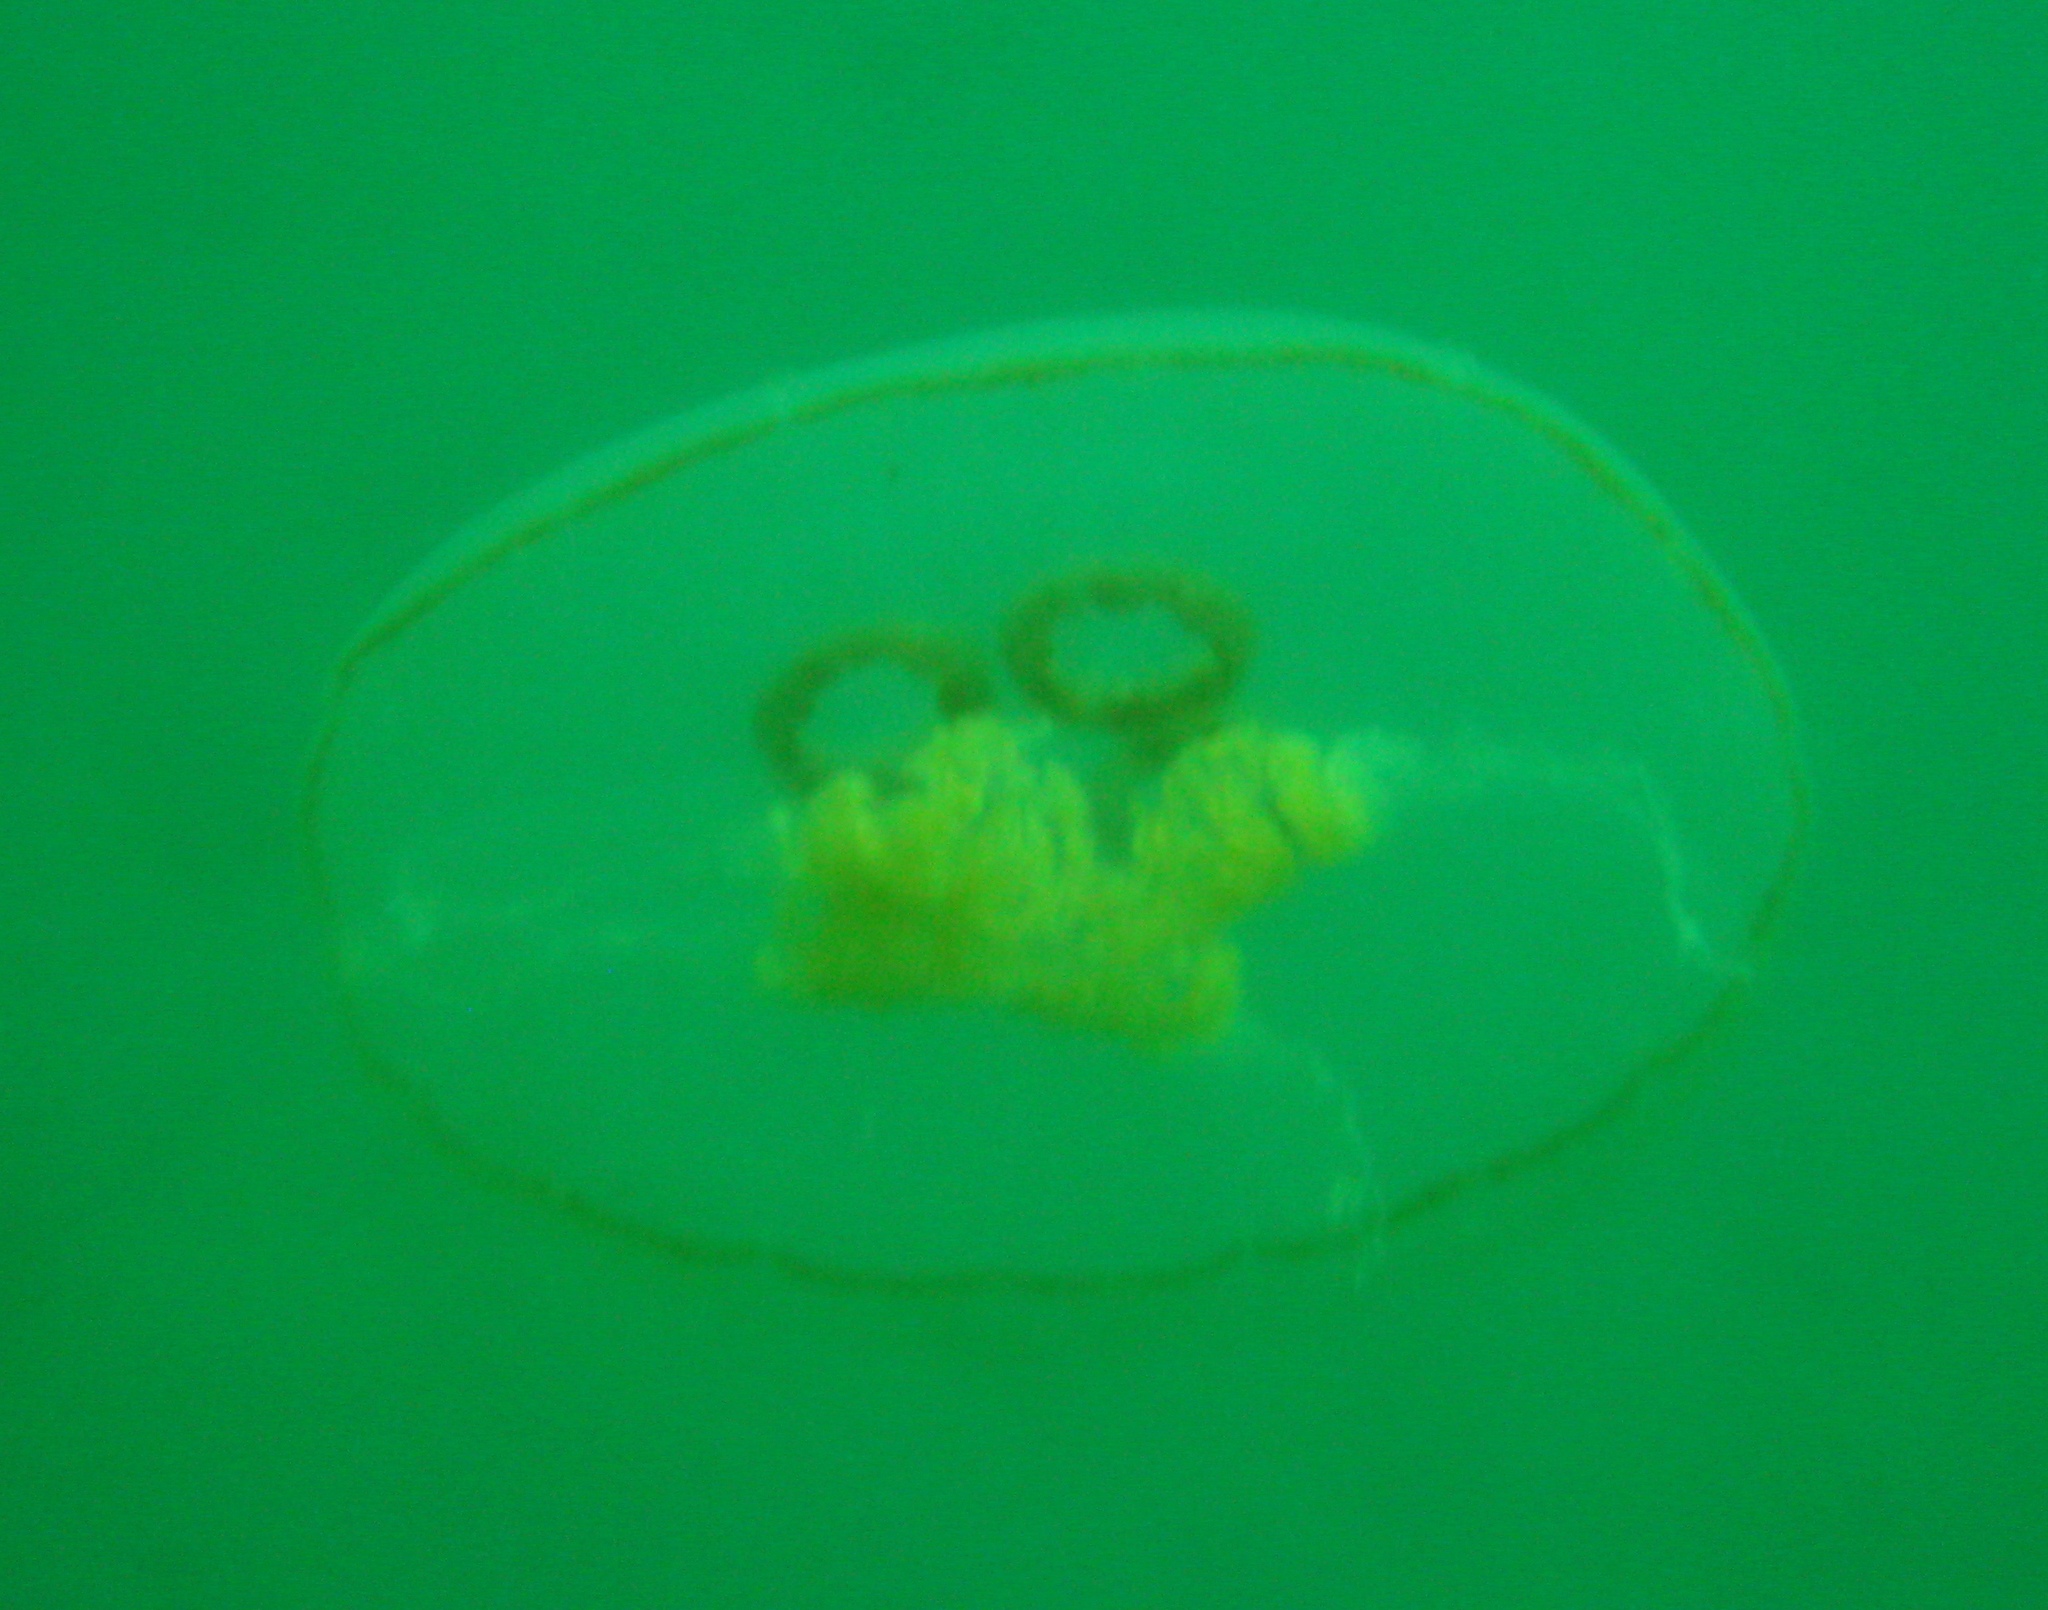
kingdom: Animalia
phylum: Cnidaria
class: Scyphozoa
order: Semaeostomeae
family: Ulmaridae
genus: Aurelia
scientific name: Aurelia limbata
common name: Brown-banded moon jelly
